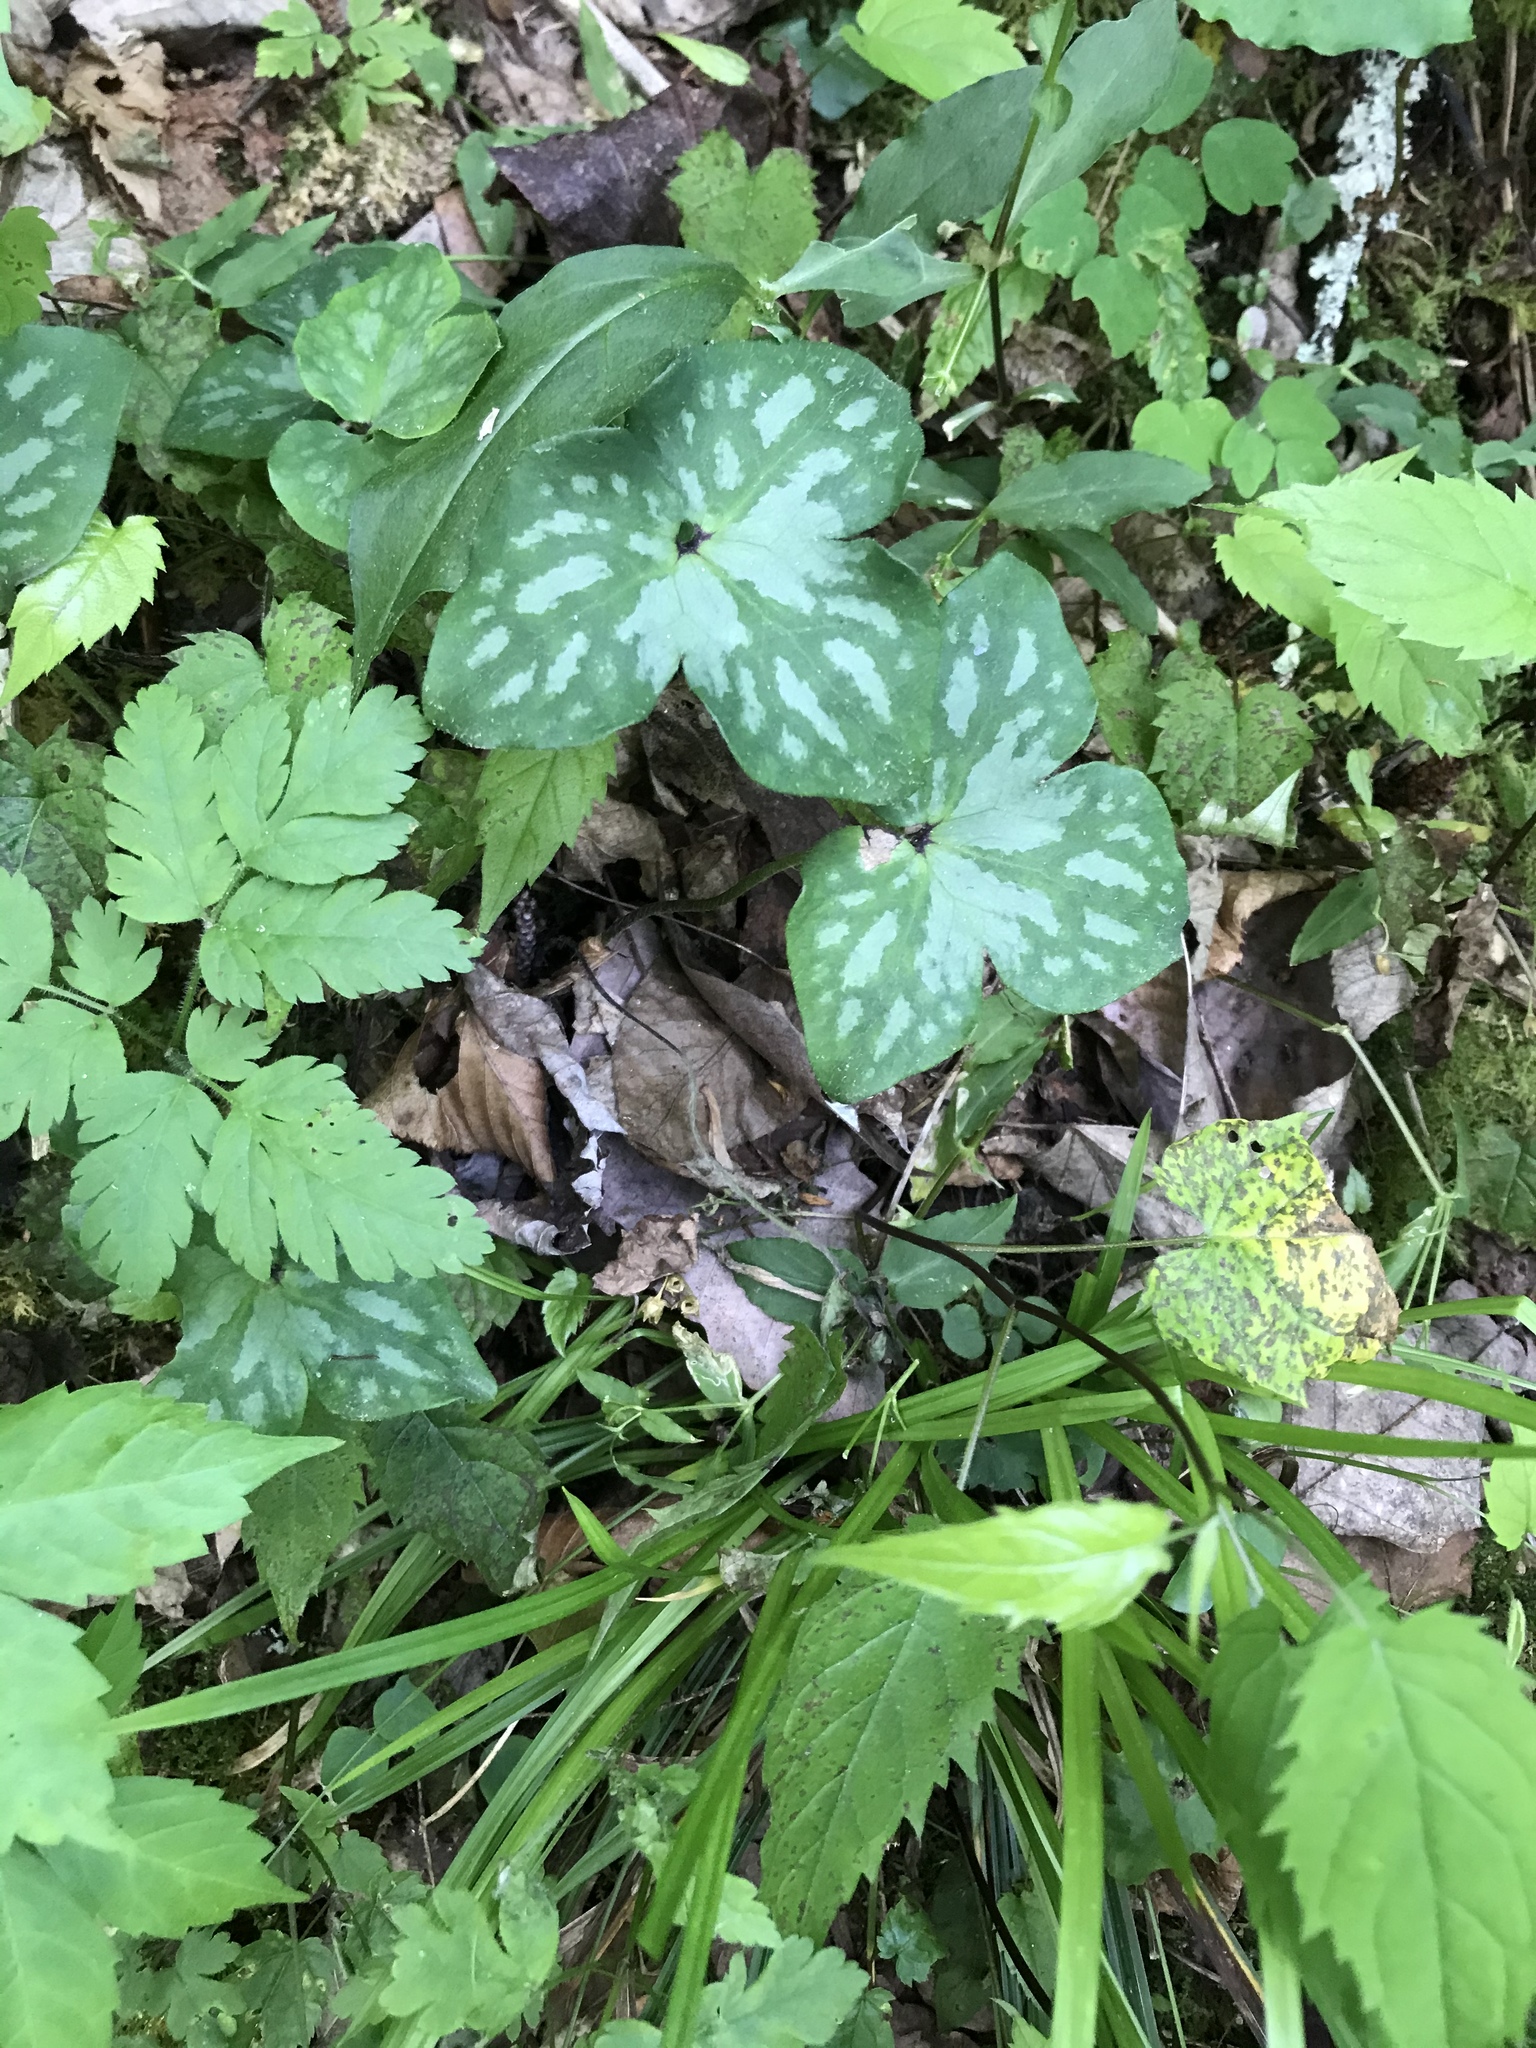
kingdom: Plantae
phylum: Tracheophyta
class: Magnoliopsida
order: Ranunculales
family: Ranunculaceae
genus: Hepatica
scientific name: Hepatica acutiloba
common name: Sharp-lobed hepatica
